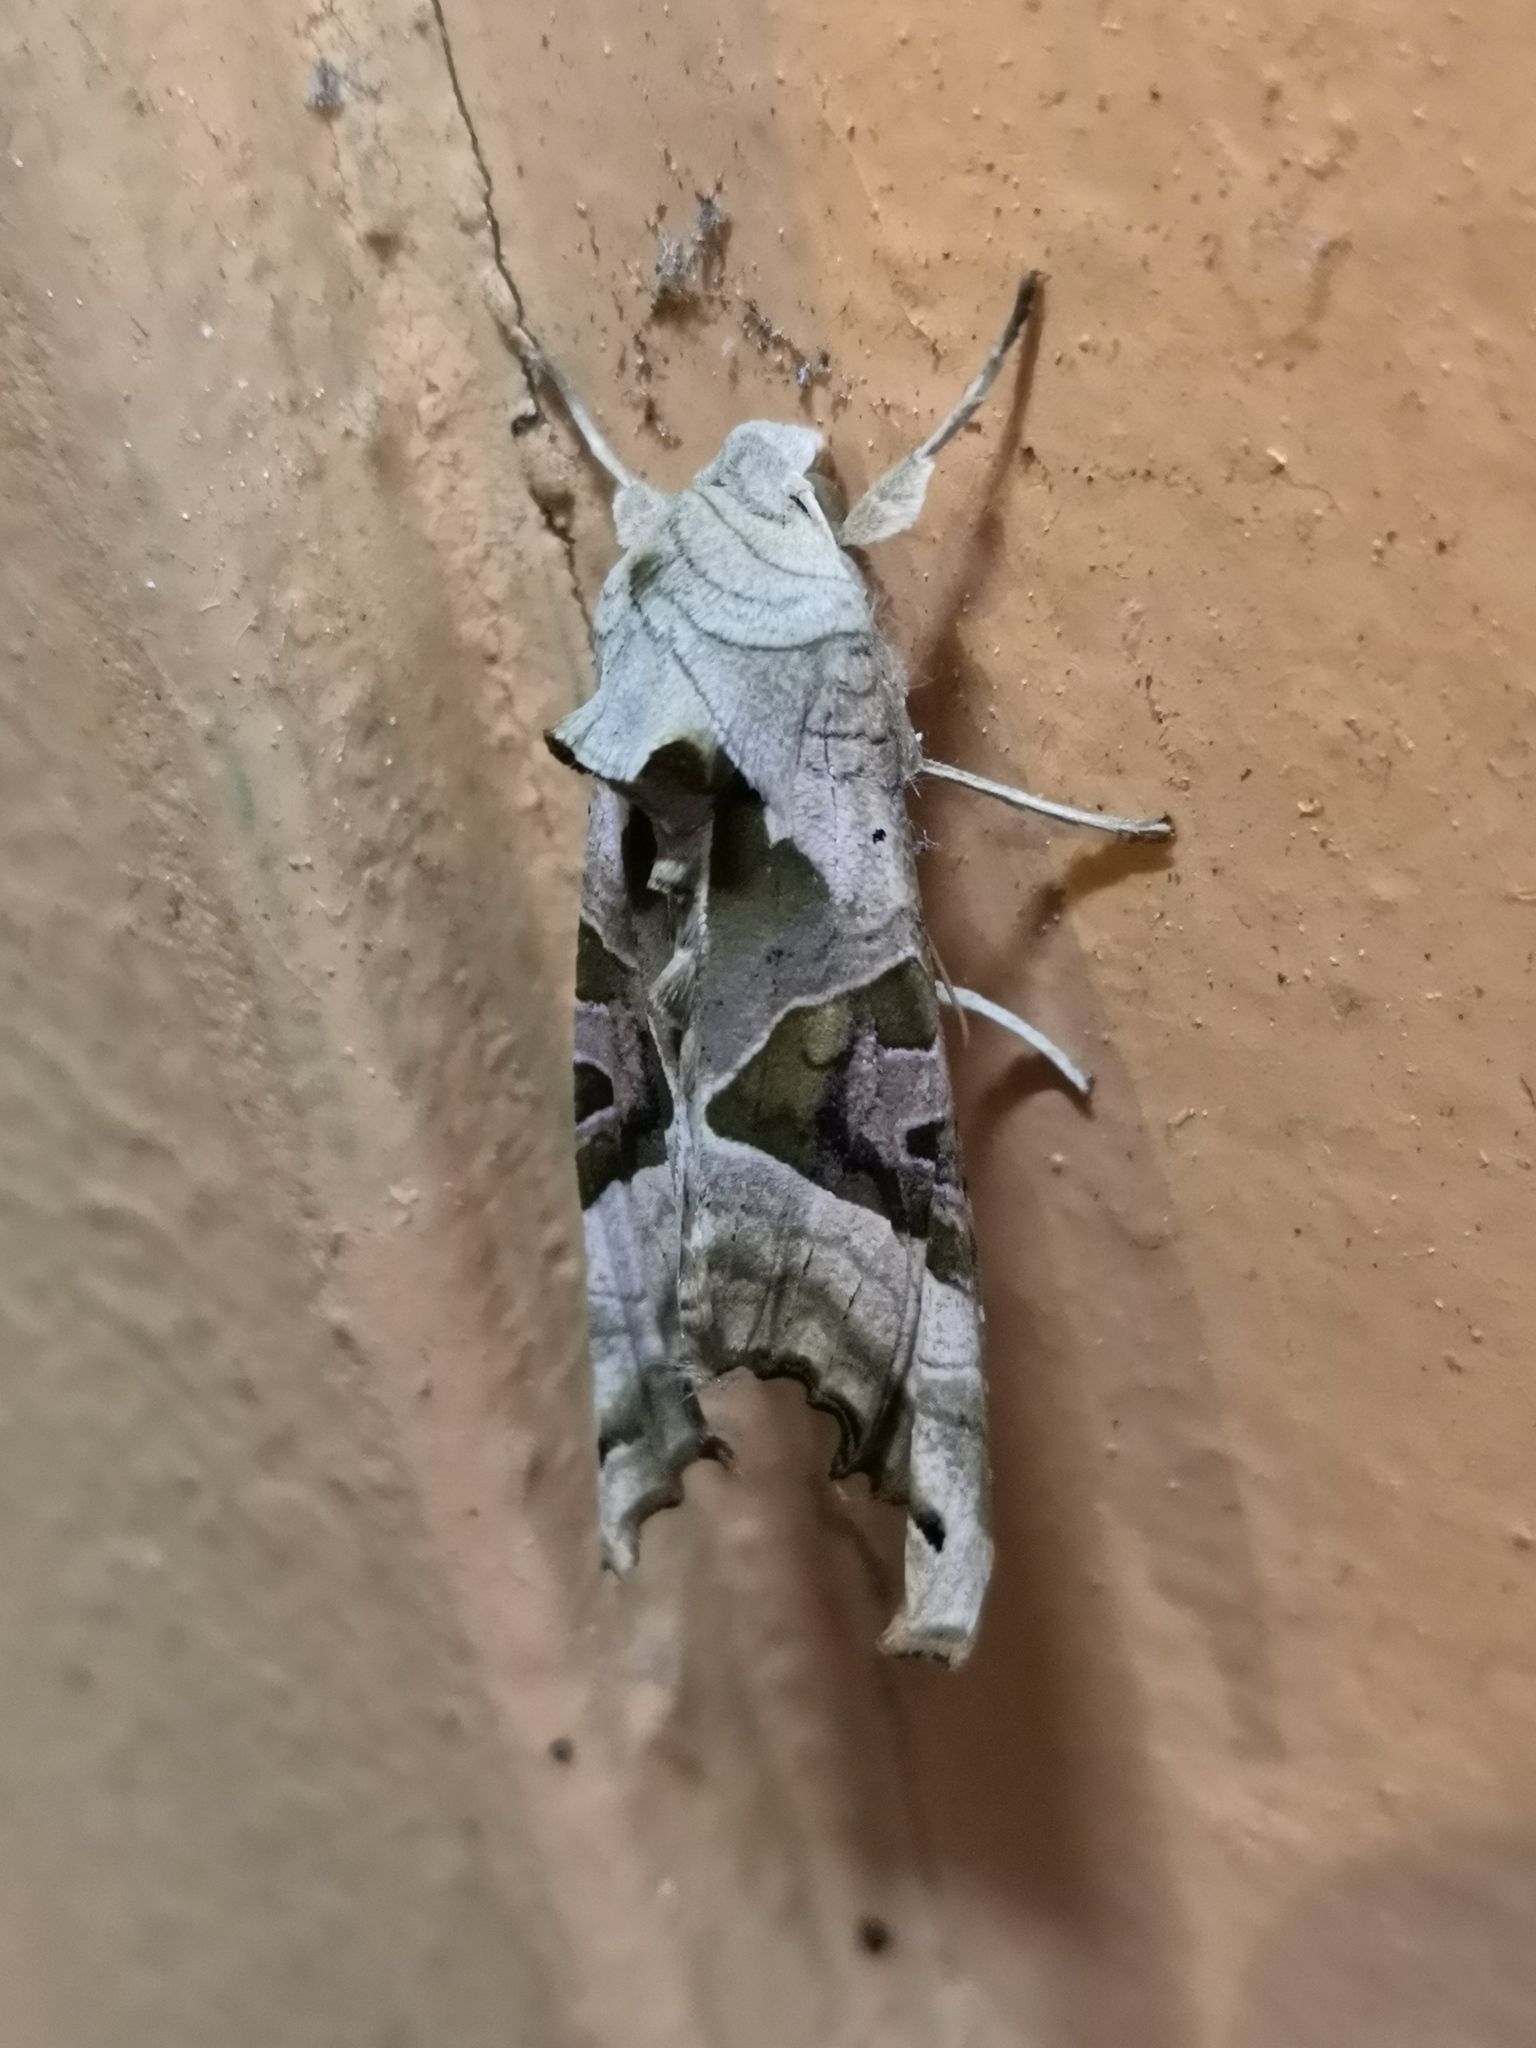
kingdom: Animalia
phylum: Arthropoda
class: Insecta
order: Lepidoptera
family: Noctuidae
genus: Phlogophora
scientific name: Phlogophora meticulosa
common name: Angle shades
